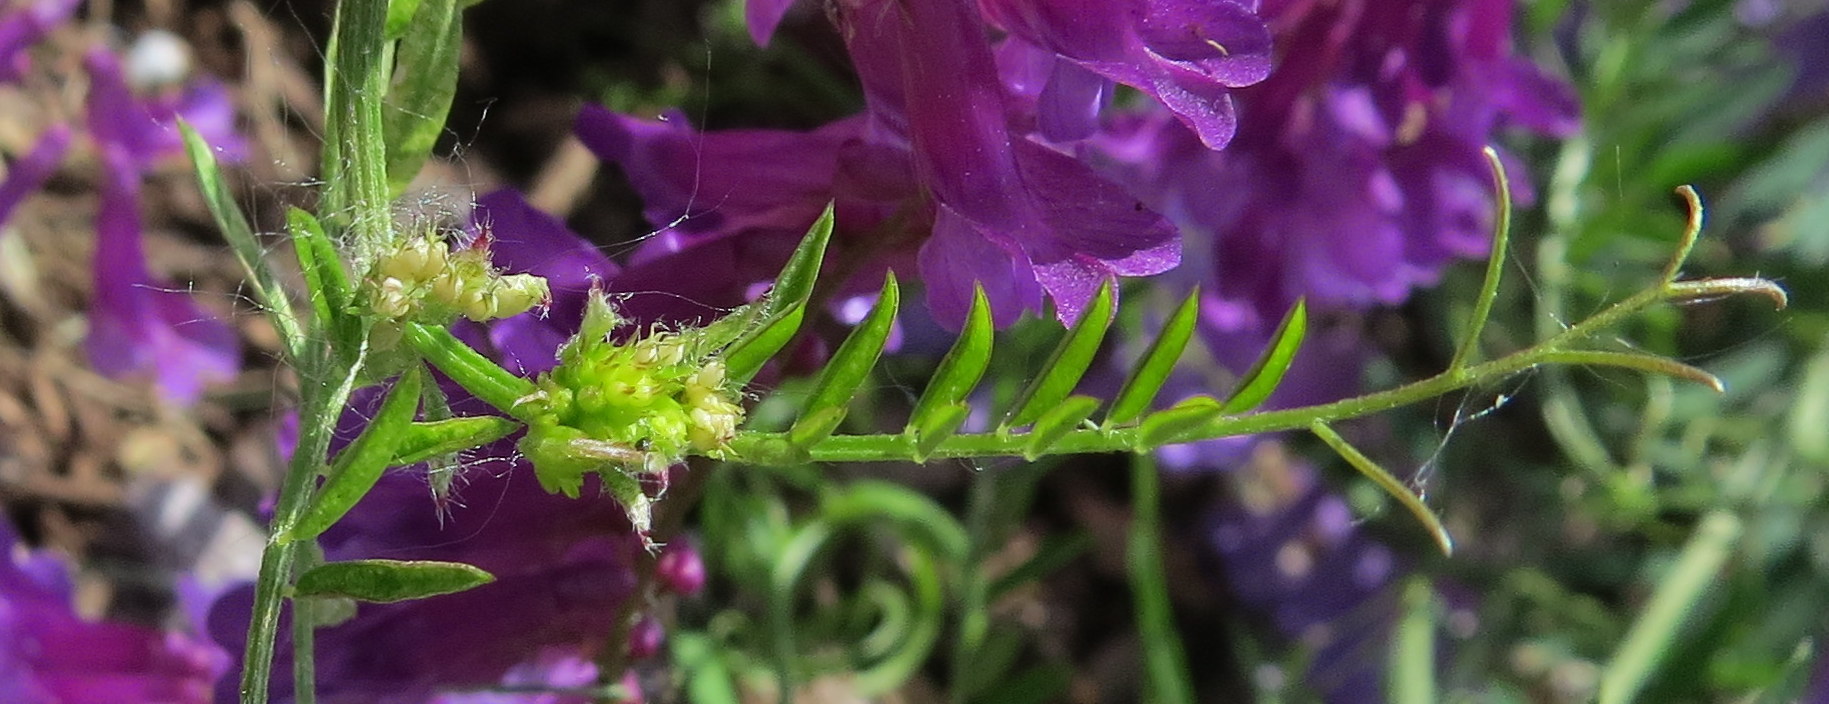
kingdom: Plantae
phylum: Tracheophyta
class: Magnoliopsida
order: Fabales
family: Fabaceae
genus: Vicia
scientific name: Vicia villosa
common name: Fodder vetch
